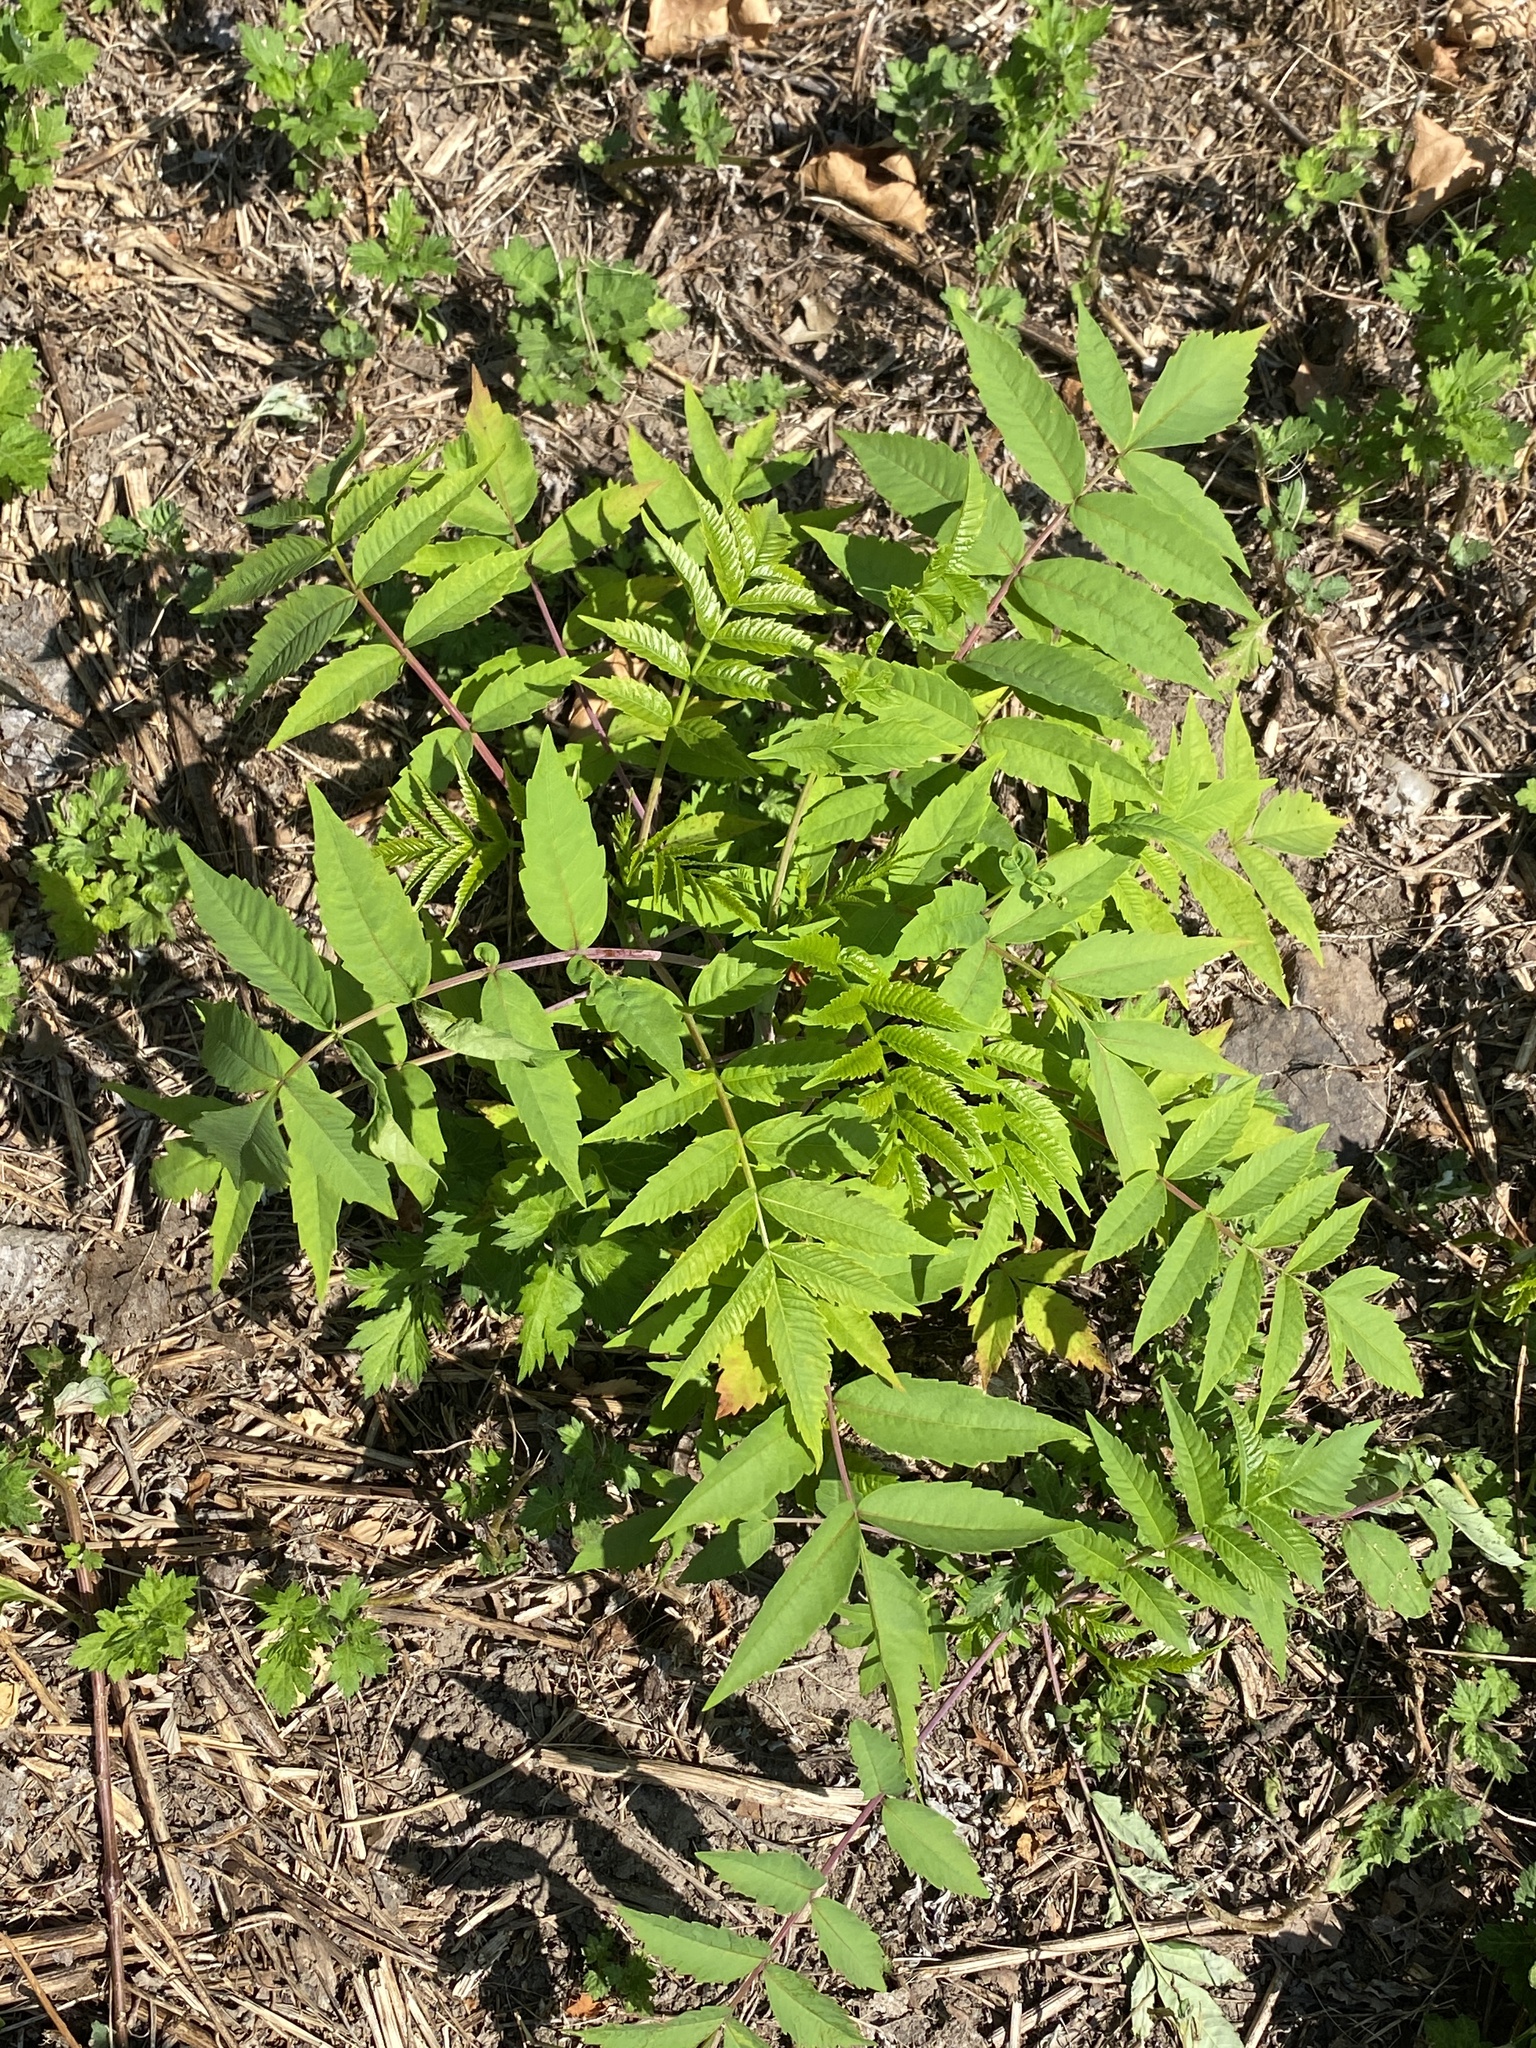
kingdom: Plantae
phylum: Tracheophyta
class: Magnoliopsida
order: Sapindales
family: Anacardiaceae
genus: Rhus
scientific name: Rhus glabra
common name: Scarlet sumac
